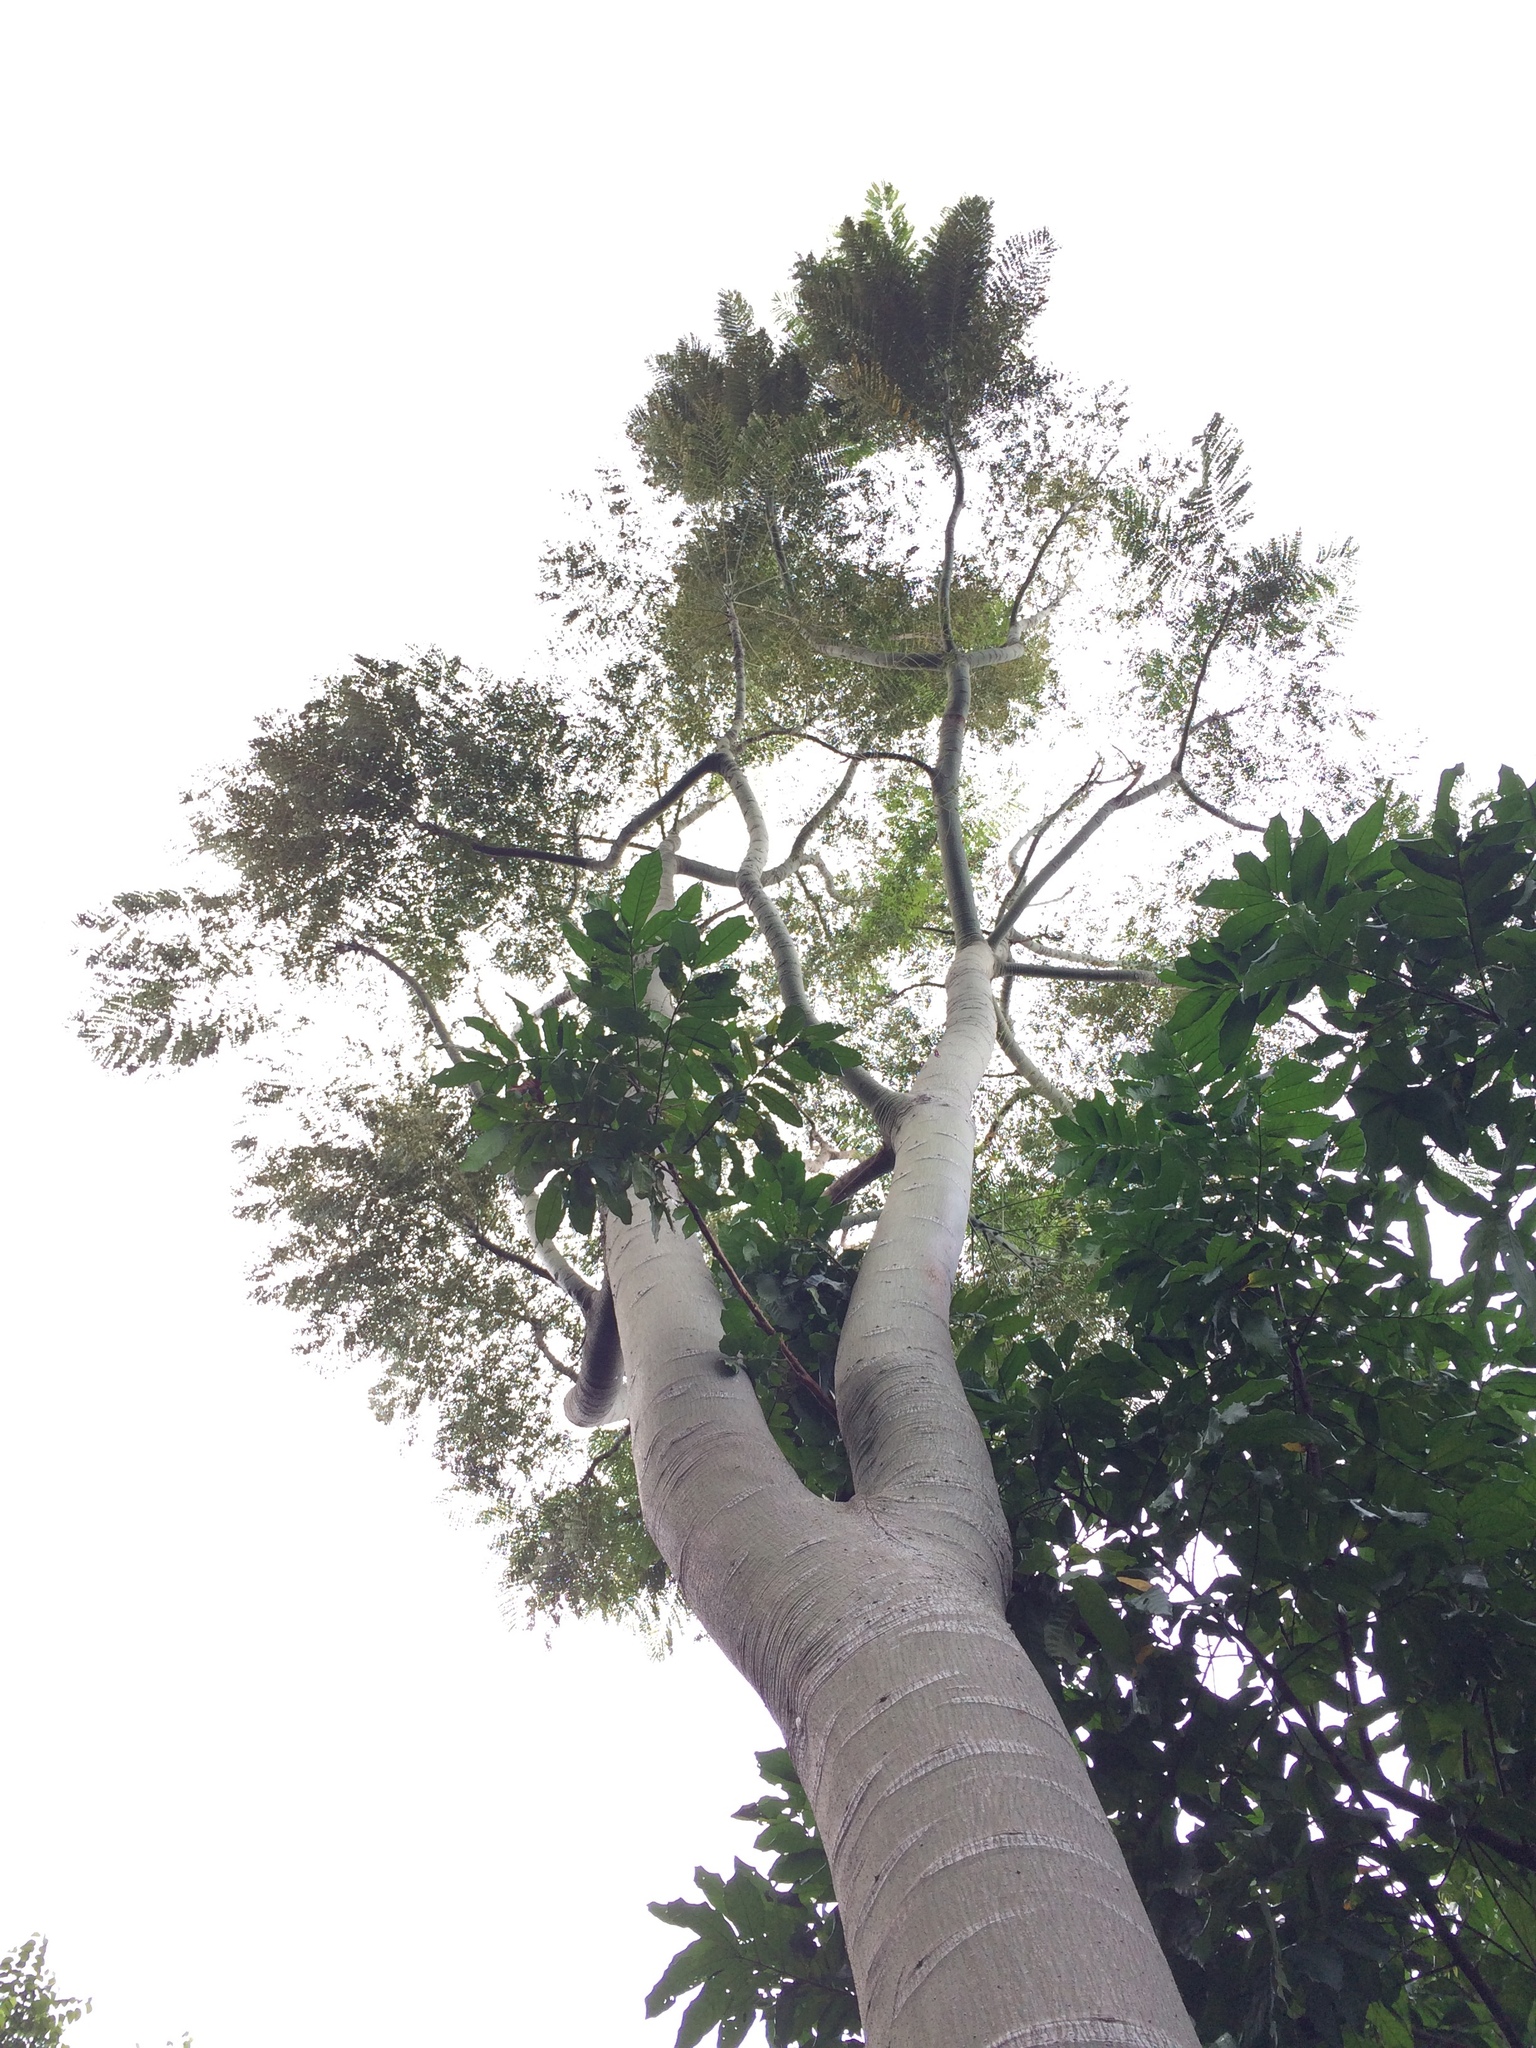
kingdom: Plantae
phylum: Tracheophyta
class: Magnoliopsida
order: Fabales
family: Fabaceae
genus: Schizolobium
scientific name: Schizolobium parahyba
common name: Brazilian firetree
